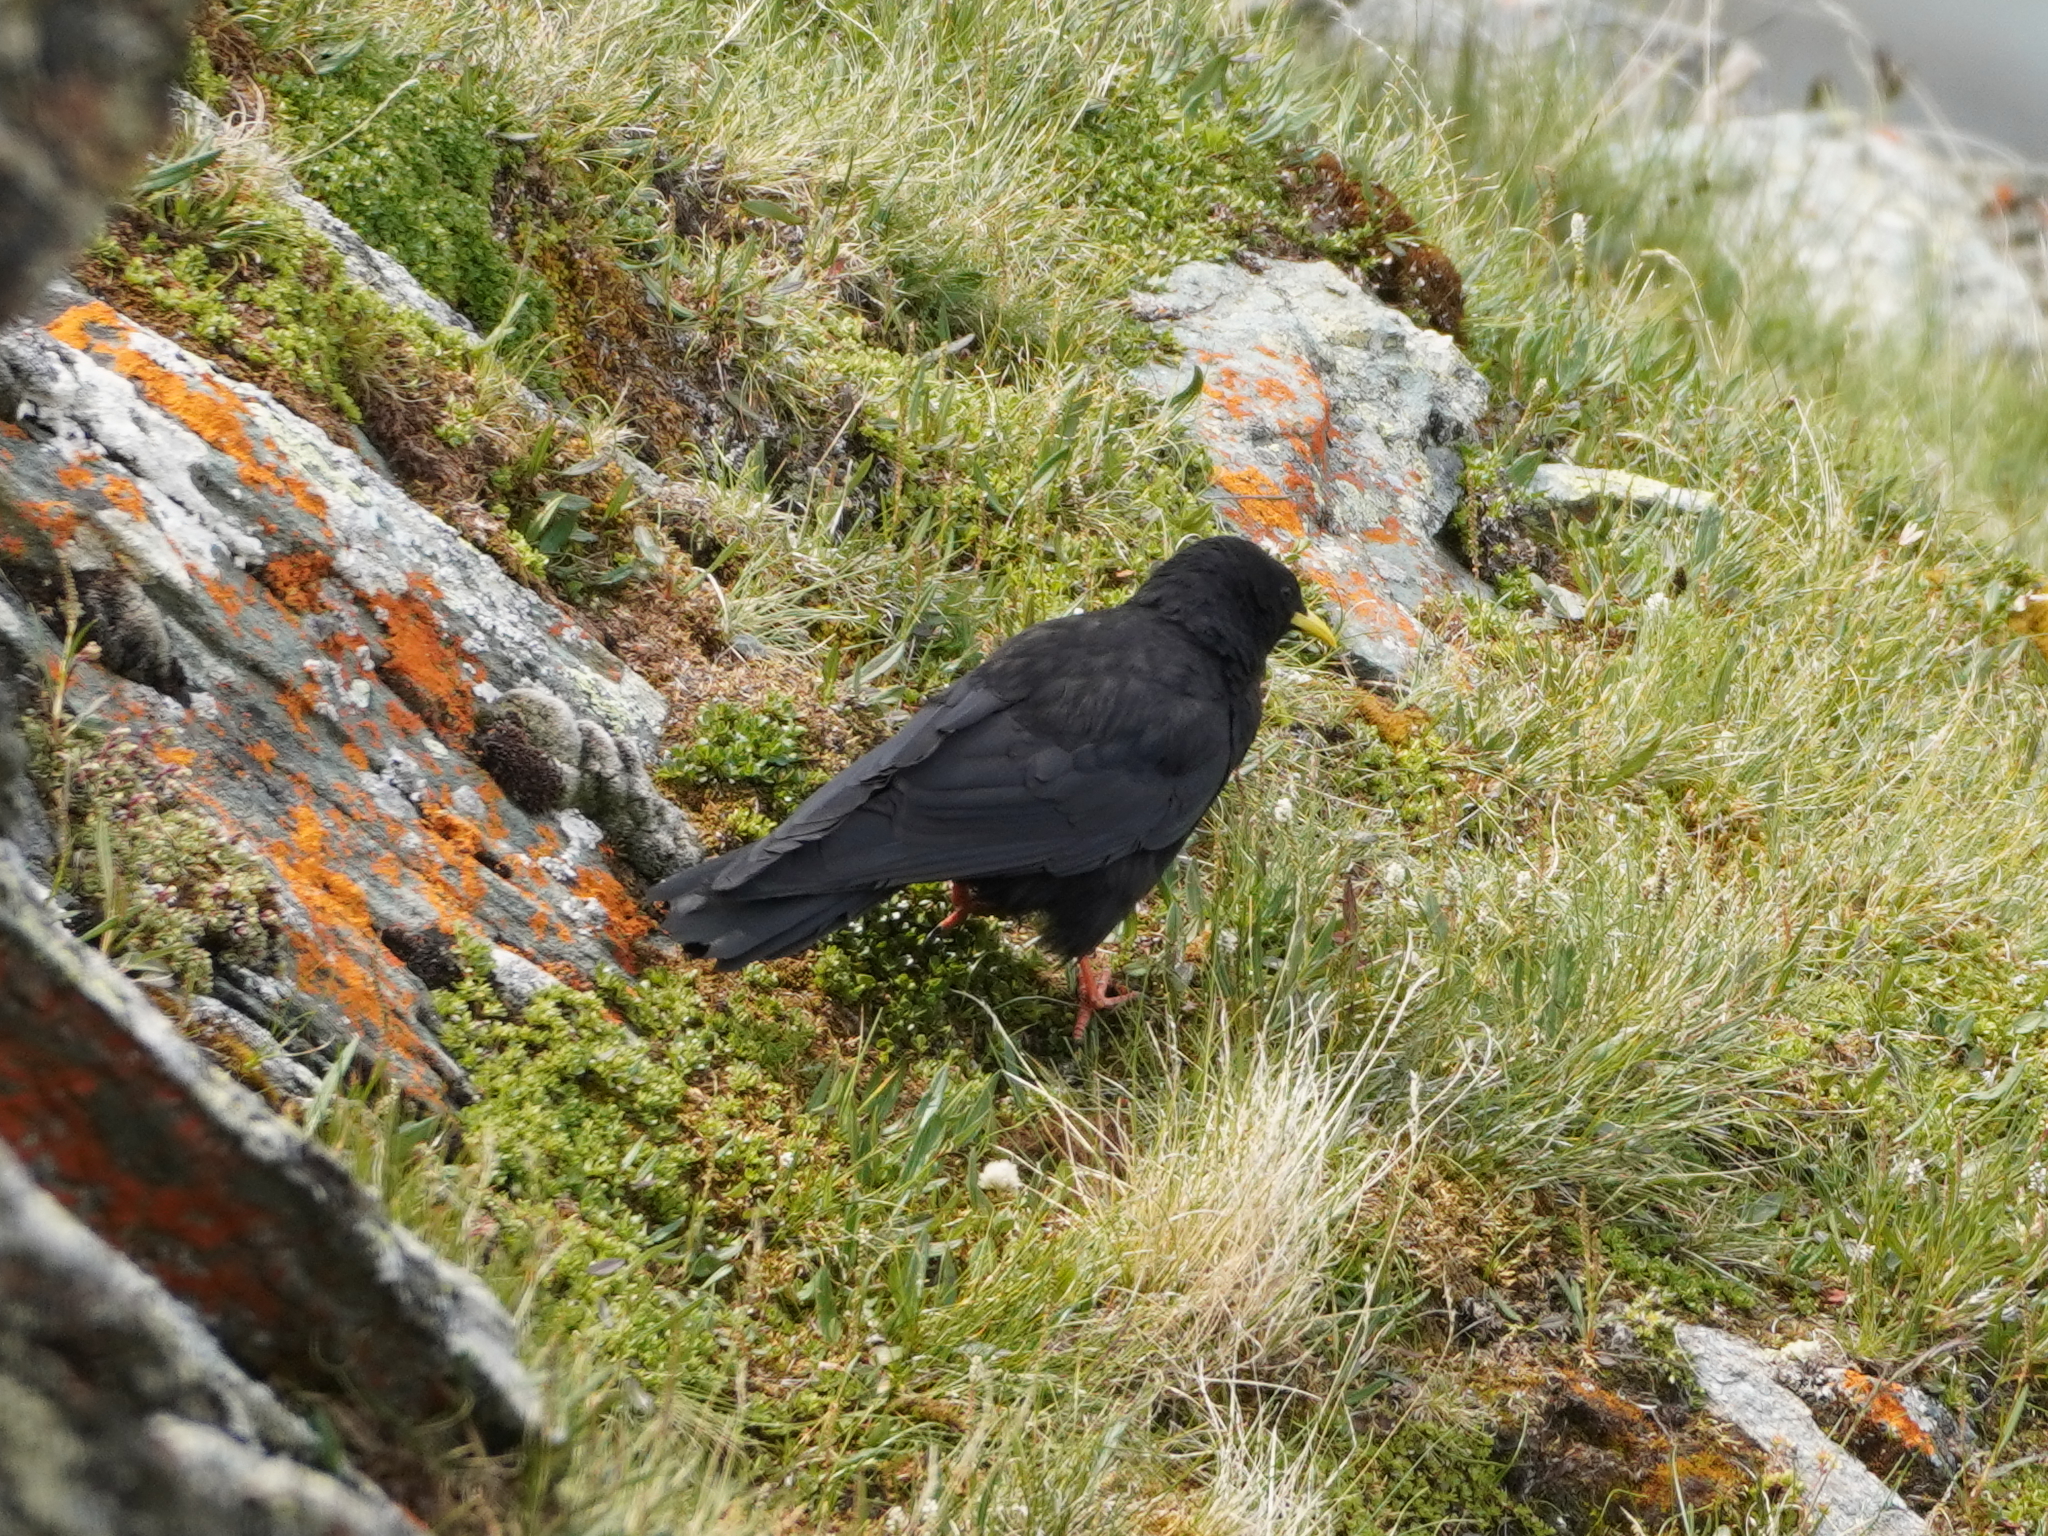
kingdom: Animalia
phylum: Chordata
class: Aves
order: Passeriformes
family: Corvidae
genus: Pyrrhocorax
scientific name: Pyrrhocorax graculus
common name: Alpine chough
